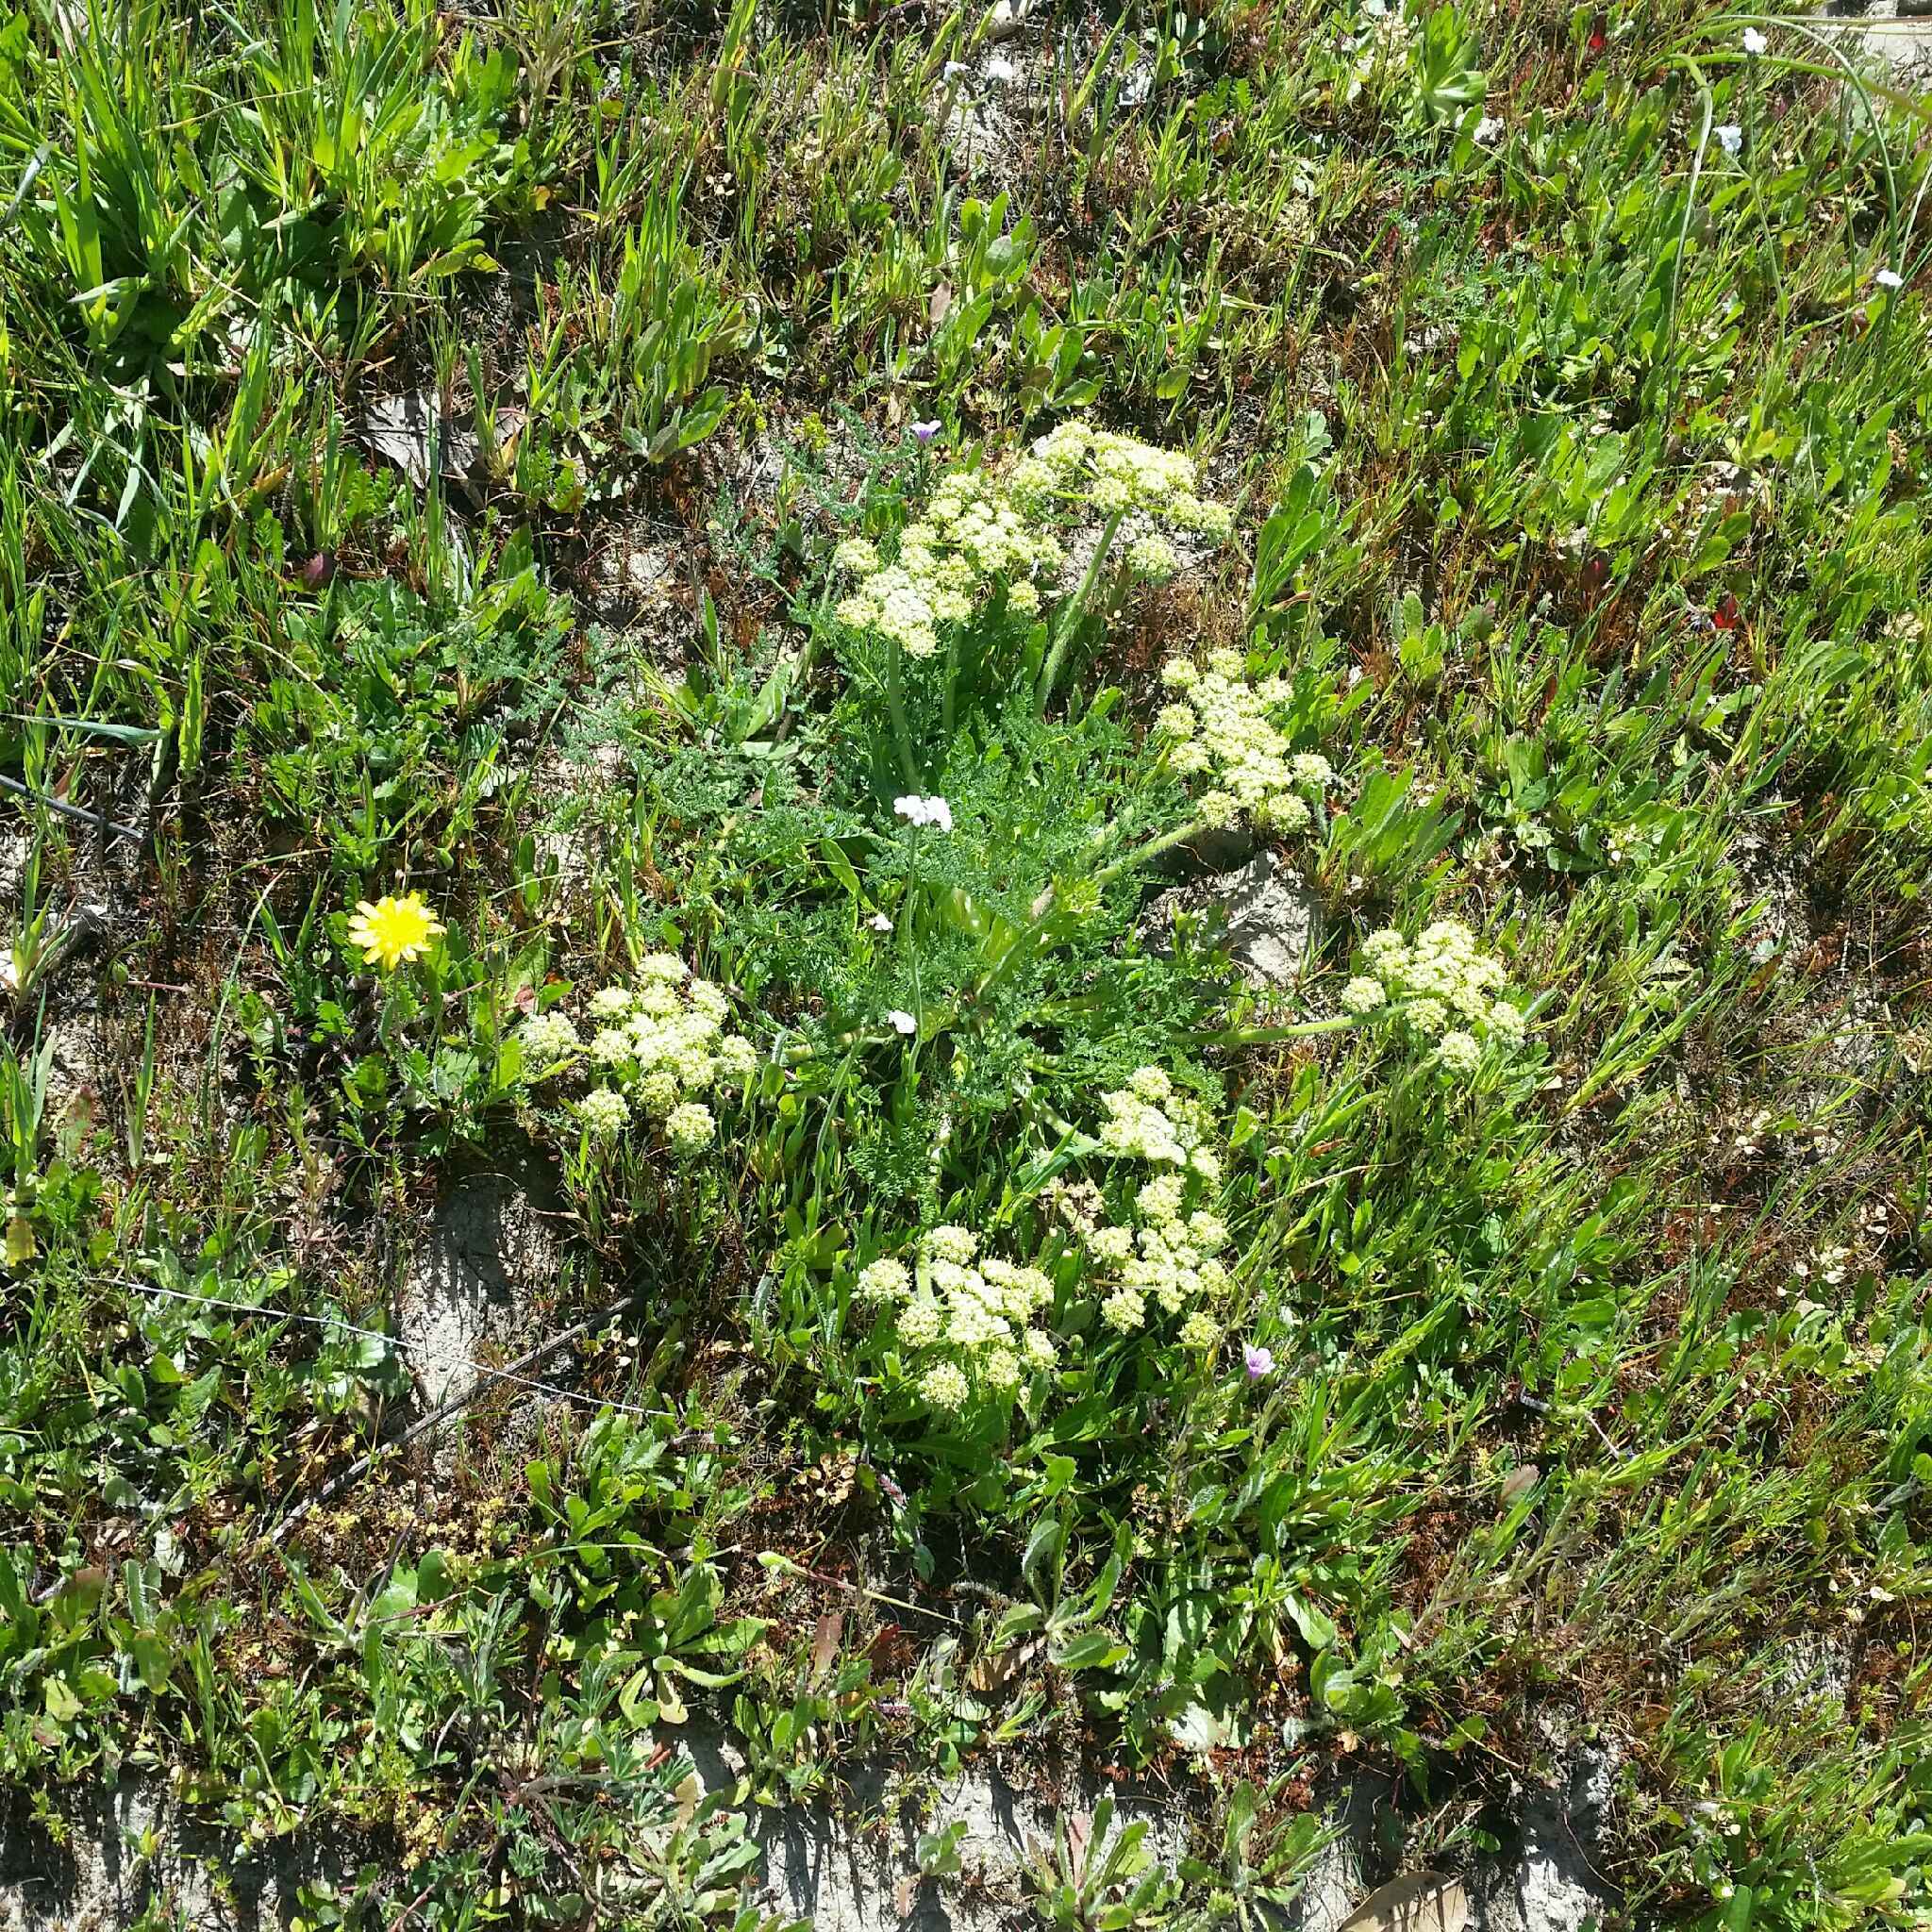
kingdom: Plantae
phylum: Tracheophyta
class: Magnoliopsida
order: Apiales
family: Apiaceae
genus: Lomatium
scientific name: Lomatium dasycarpum
